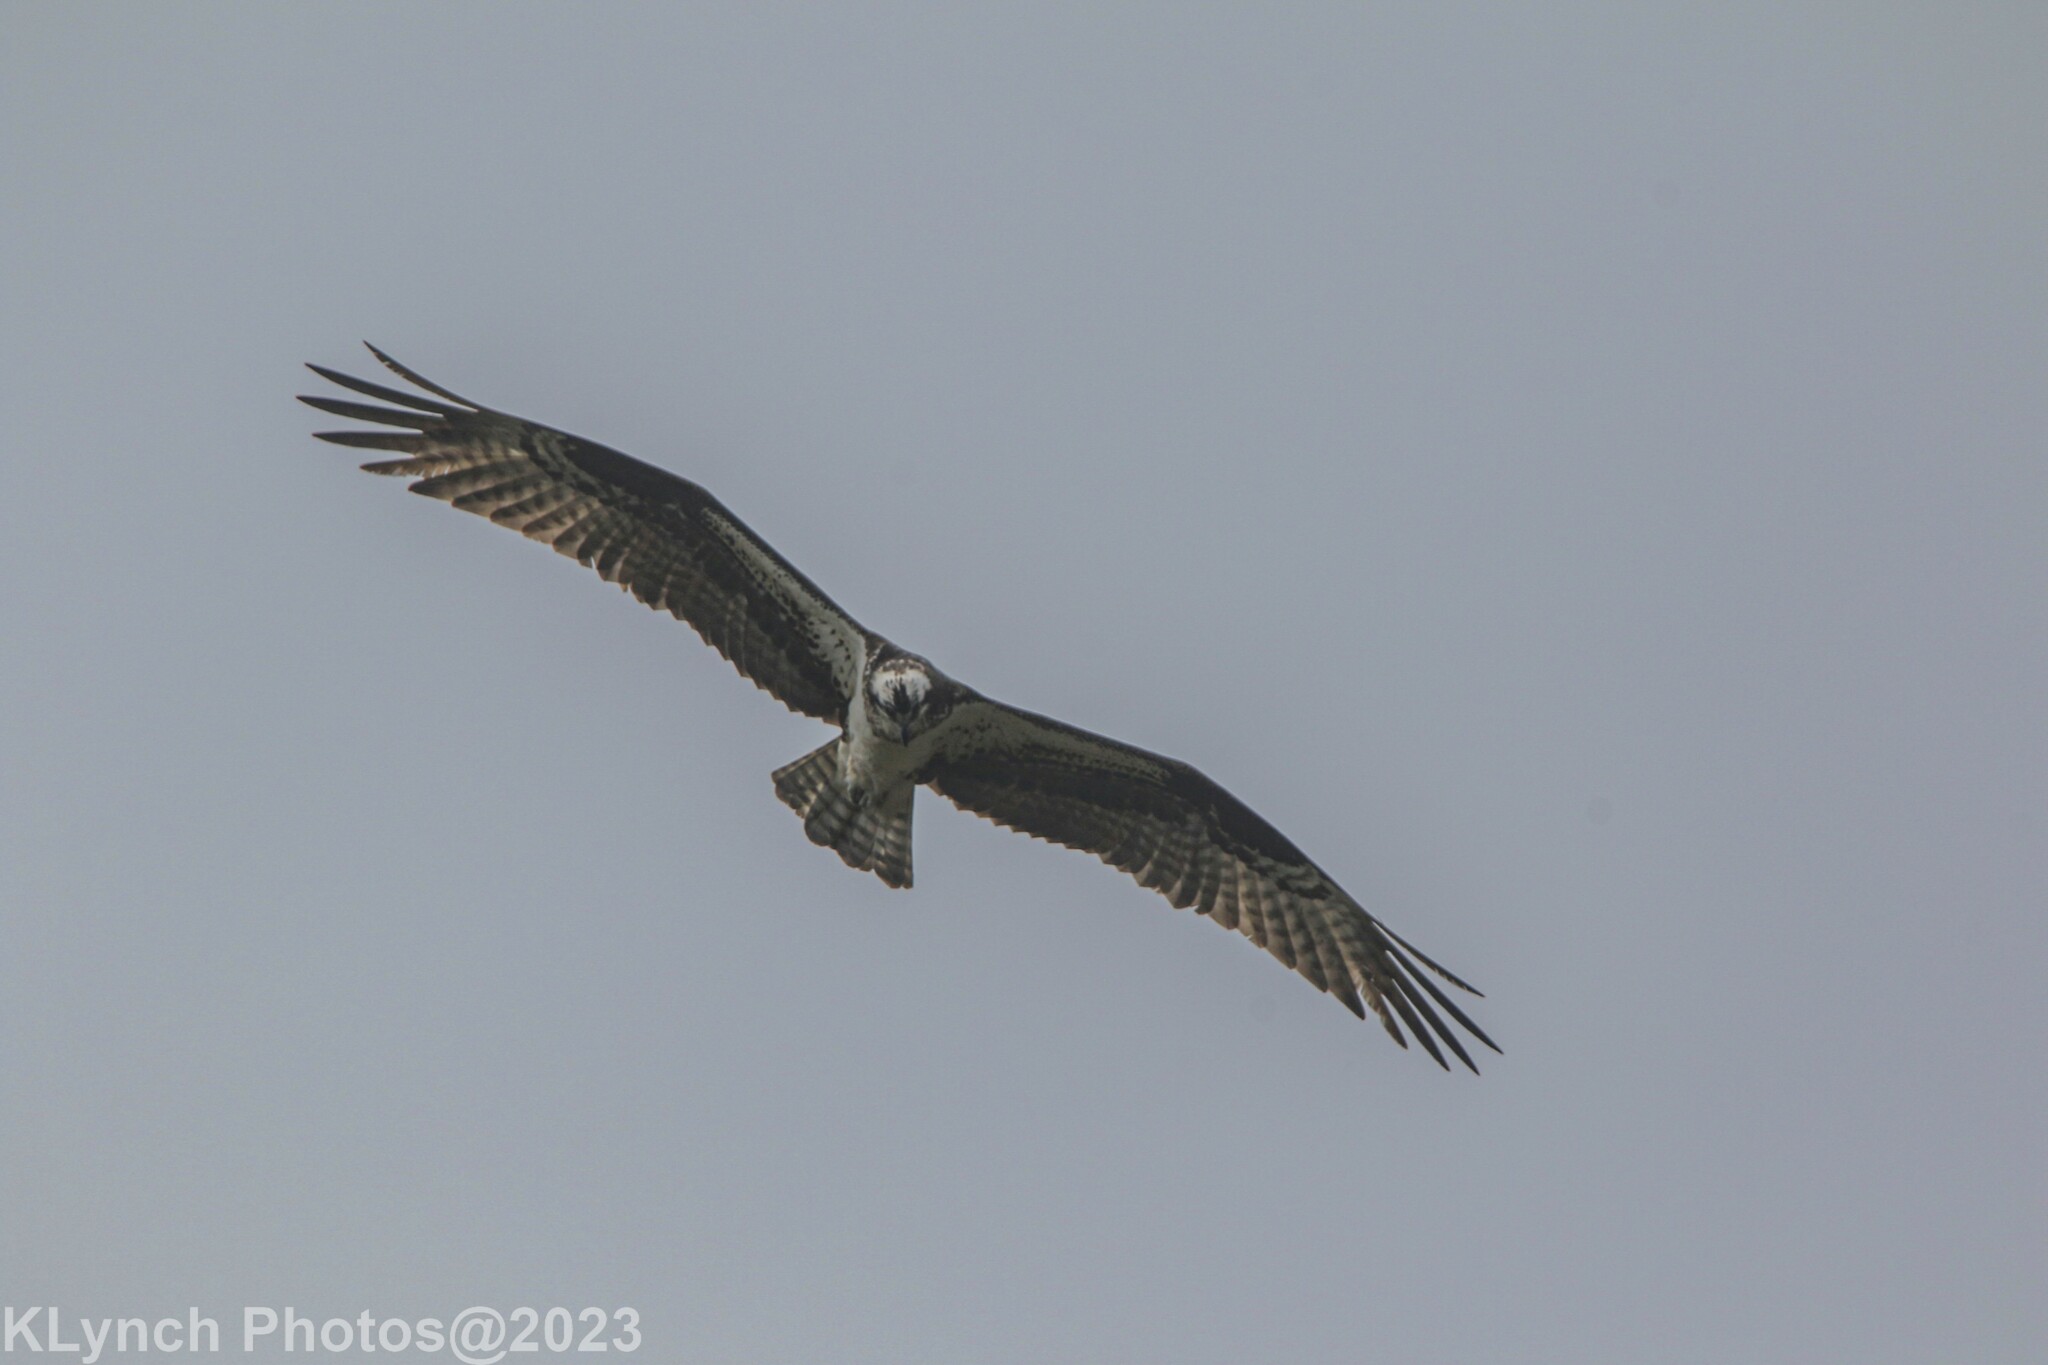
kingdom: Animalia
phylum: Chordata
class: Aves
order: Accipitriformes
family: Pandionidae
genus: Pandion
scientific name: Pandion haliaetus
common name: Osprey
